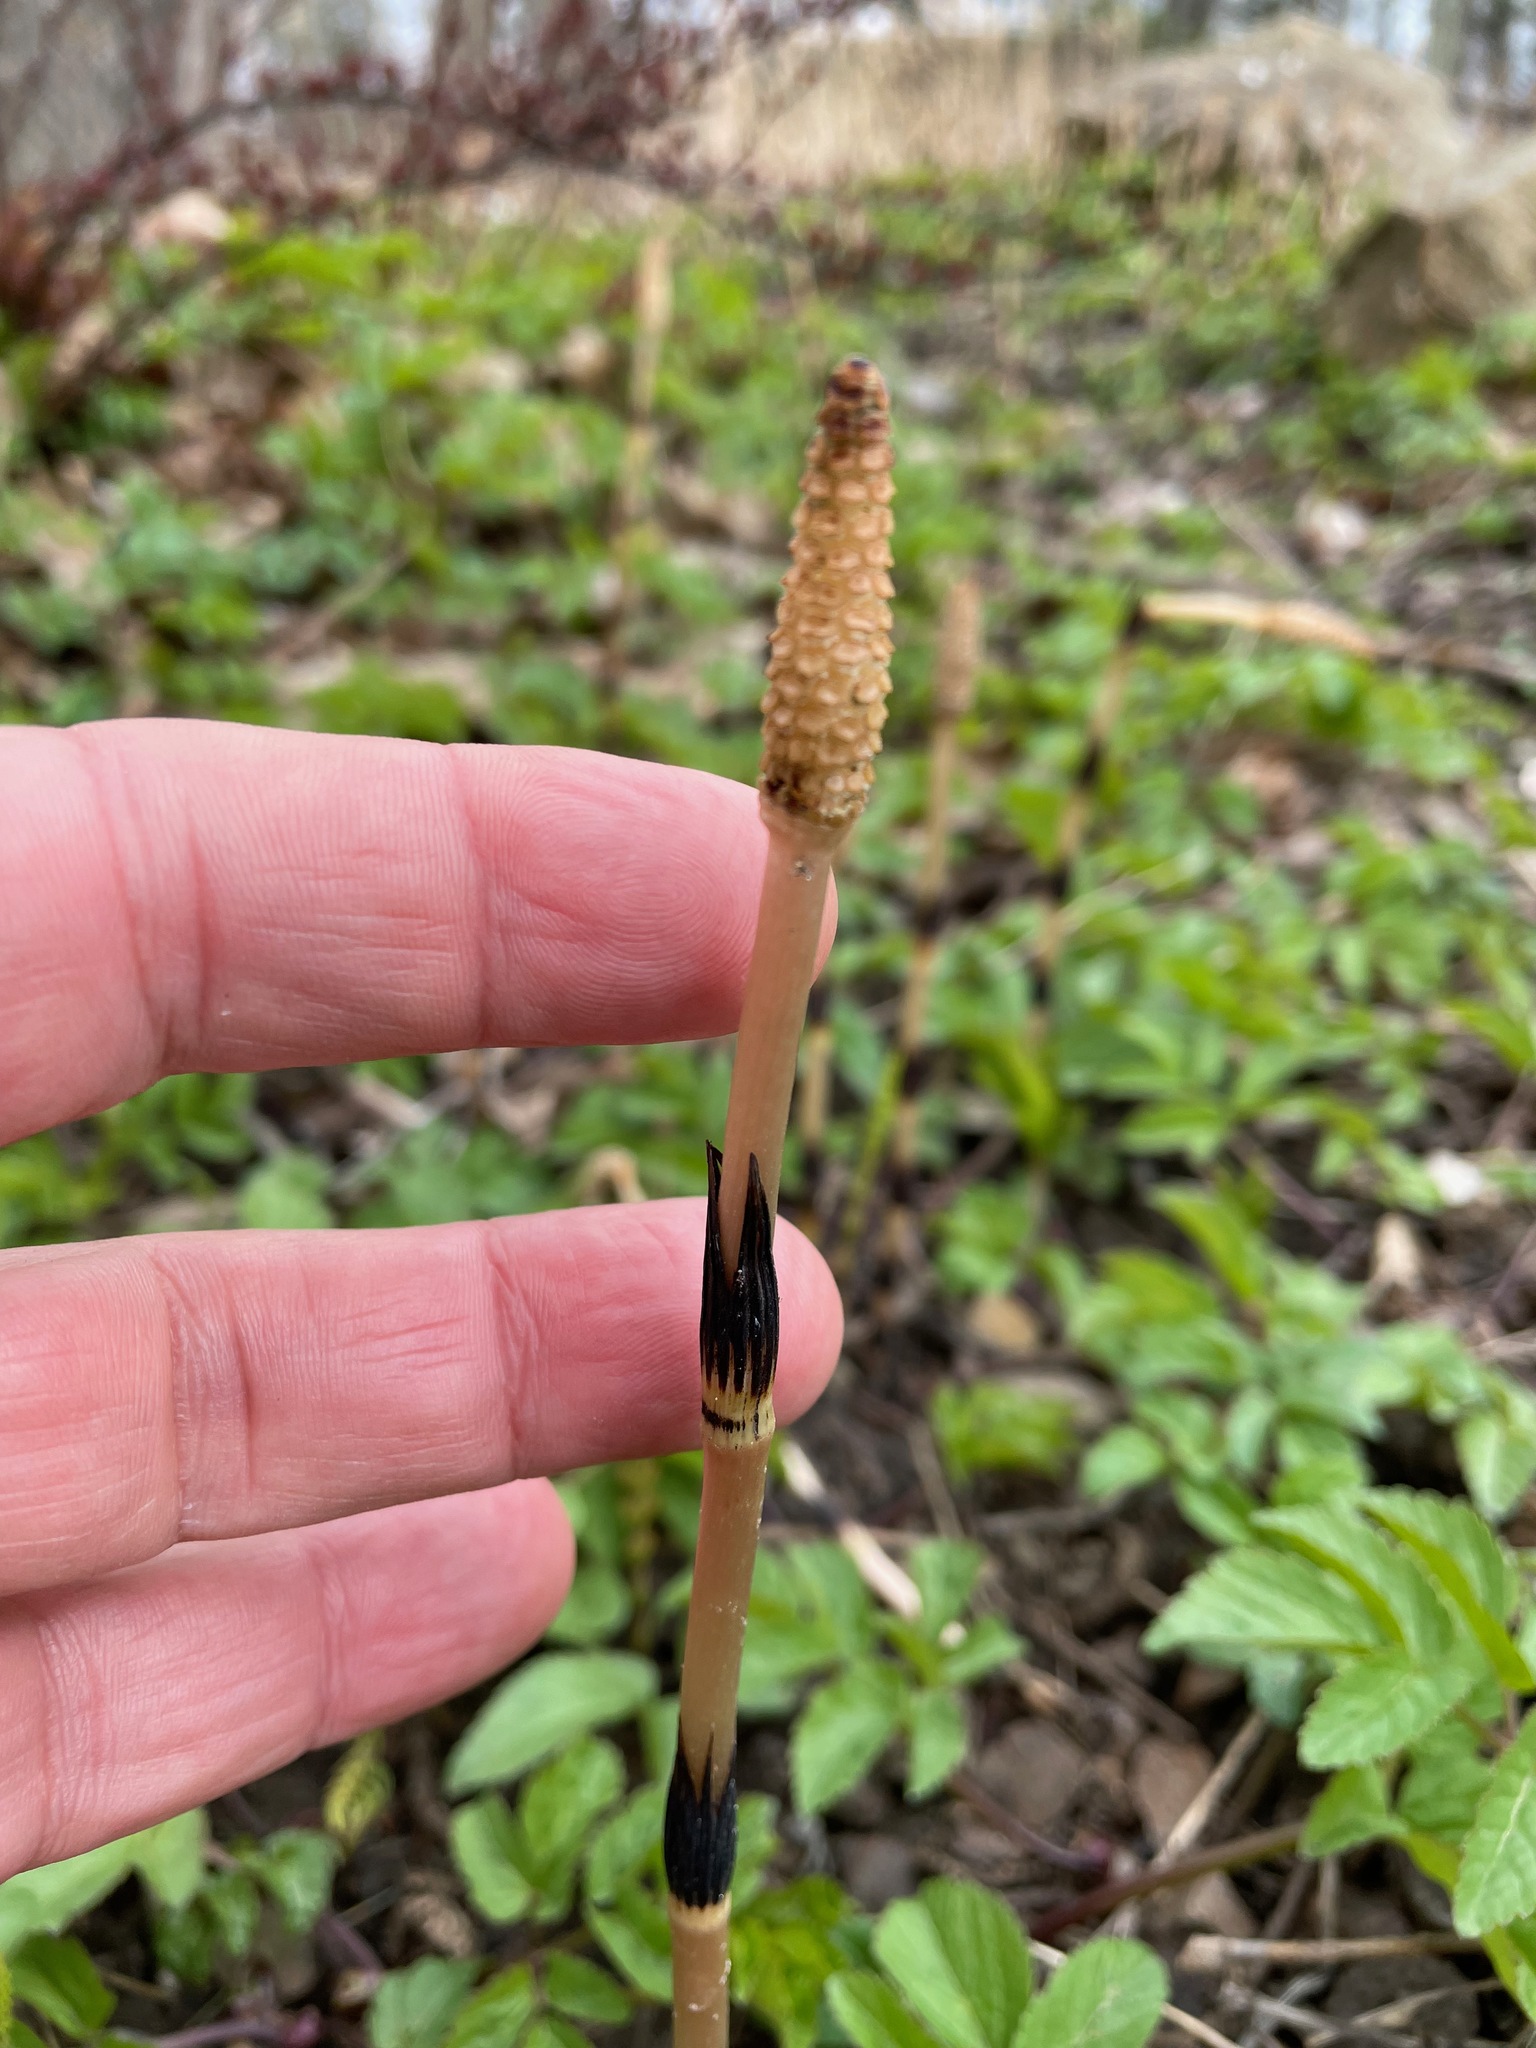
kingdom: Plantae
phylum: Tracheophyta
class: Polypodiopsida
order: Equisetales
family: Equisetaceae
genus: Equisetum
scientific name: Equisetum arvense
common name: Field horsetail
